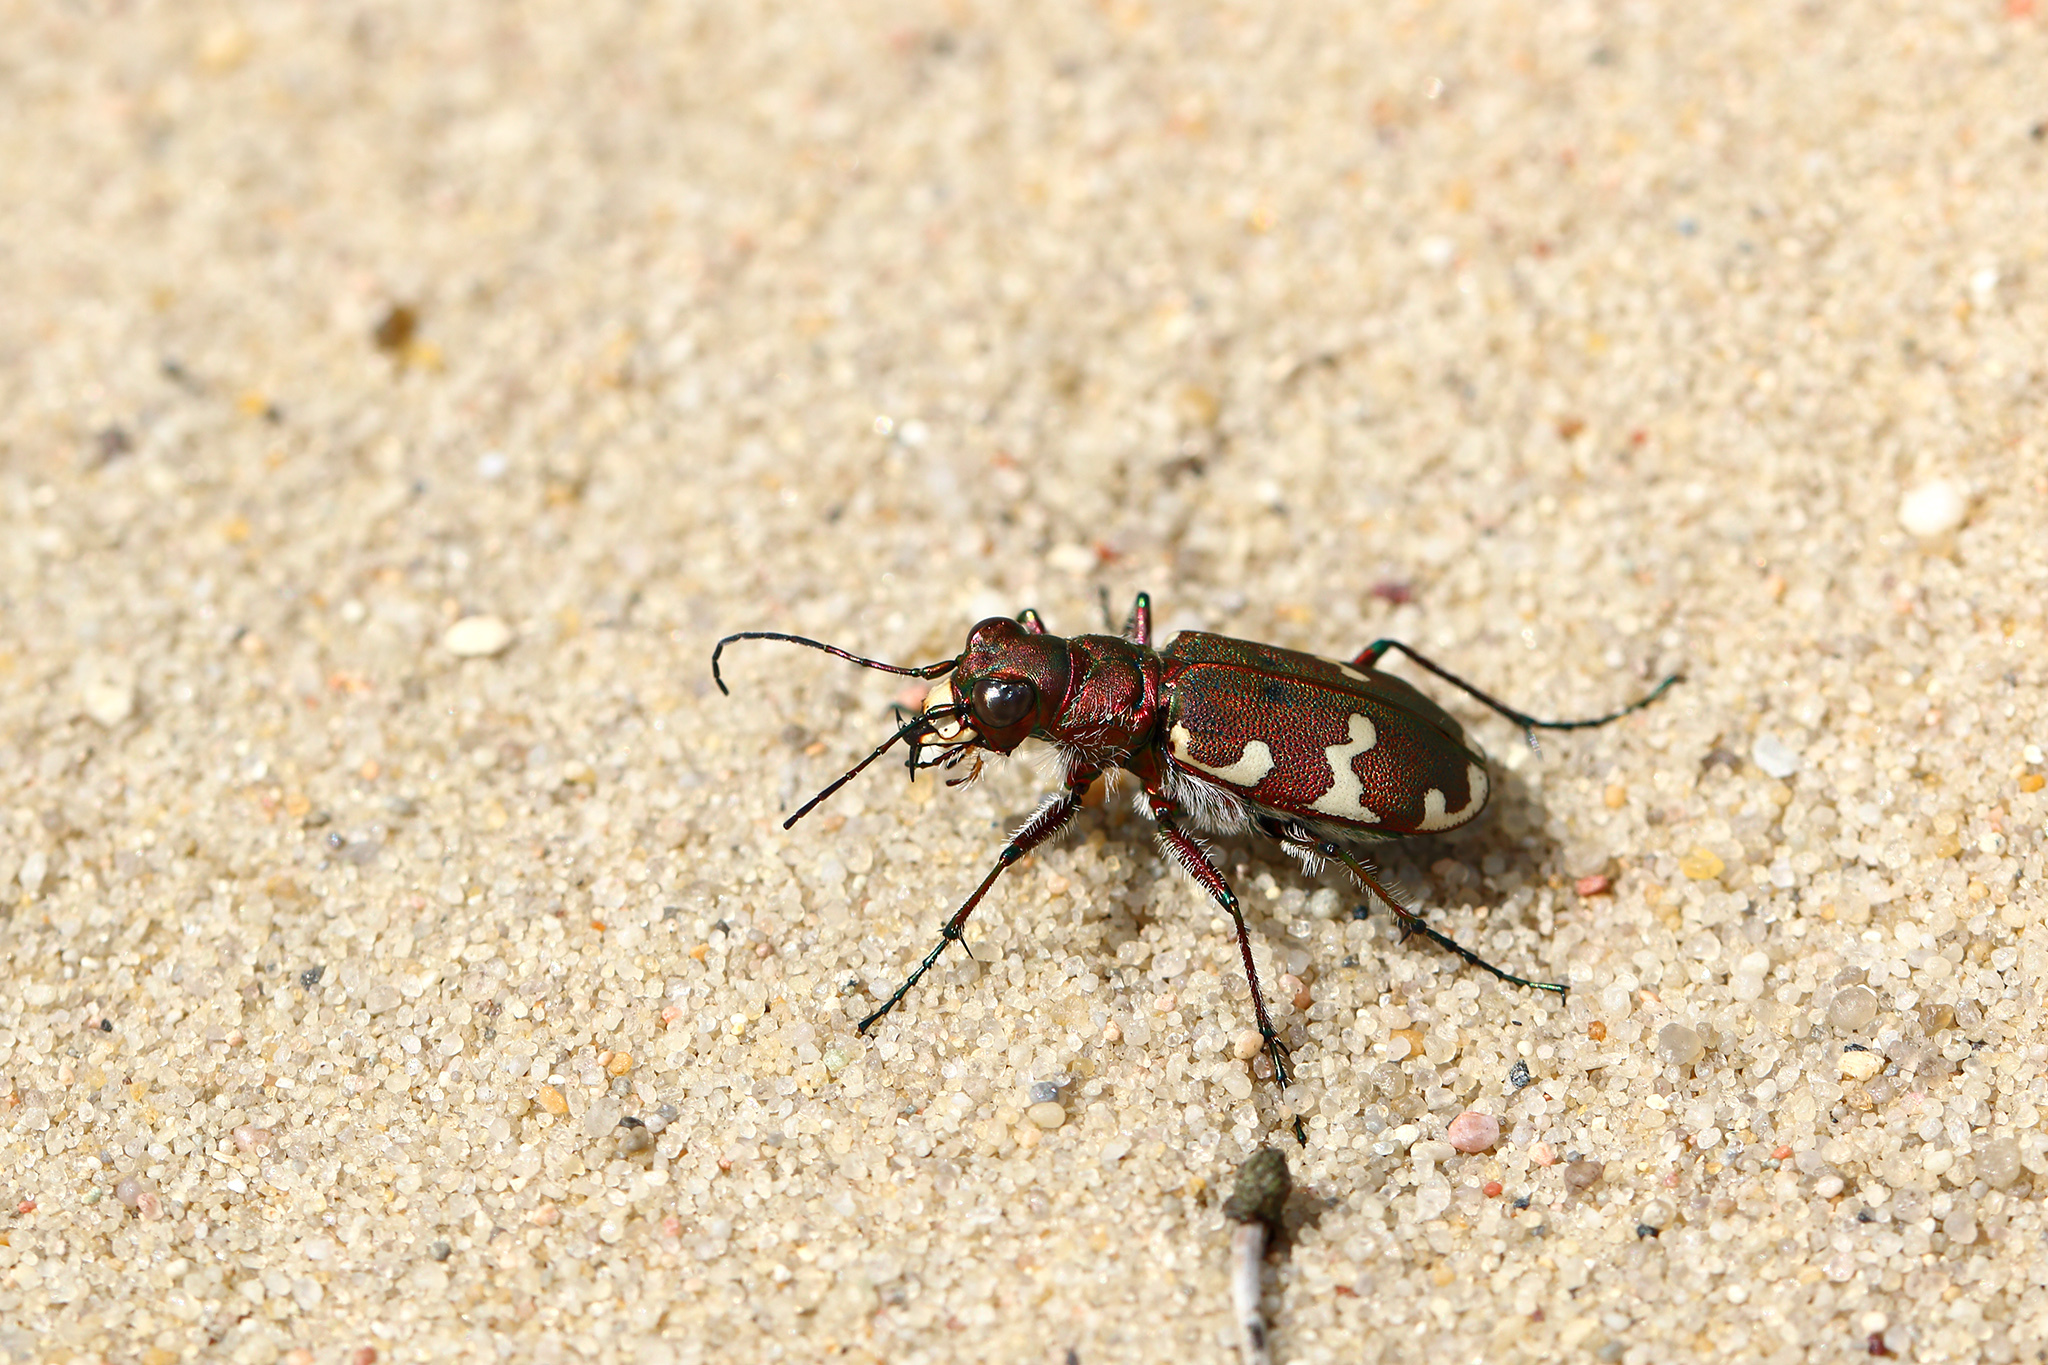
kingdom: Animalia
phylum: Arthropoda
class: Insecta
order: Coleoptera
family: Carabidae
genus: Cicindela
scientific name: Cicindela hybrida
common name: Northern dune tiger beetle
